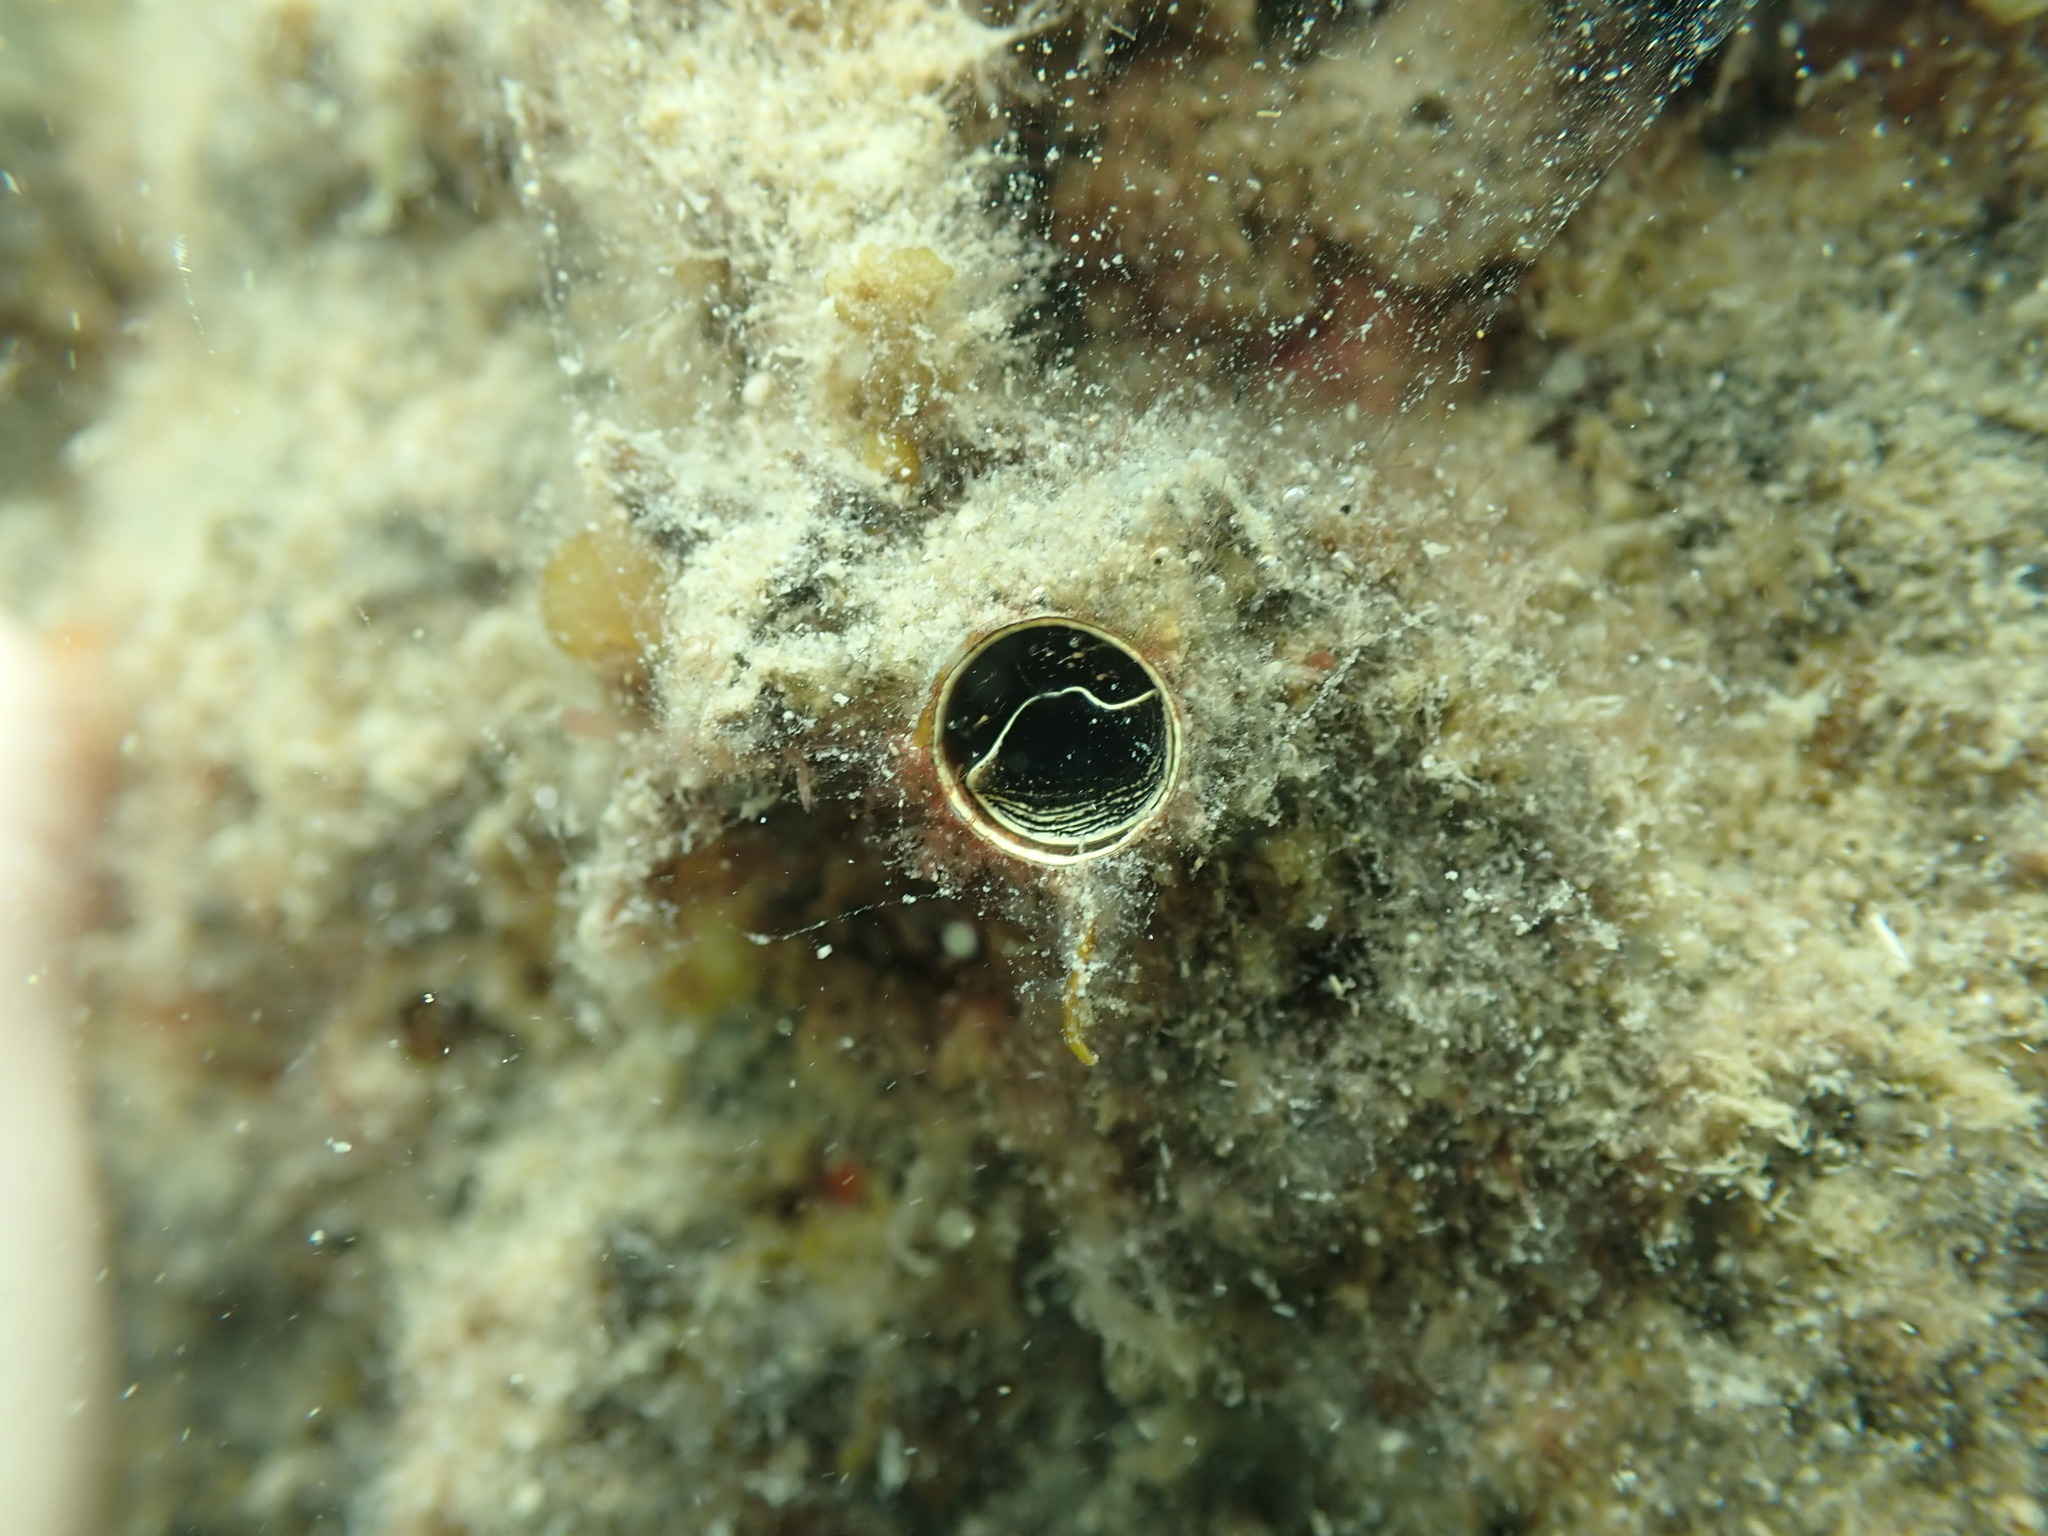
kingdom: Animalia
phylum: Mollusca
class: Gastropoda
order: Littorinimorpha
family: Vermetidae
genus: Thylacodes
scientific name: Thylacodes aotearoicus
